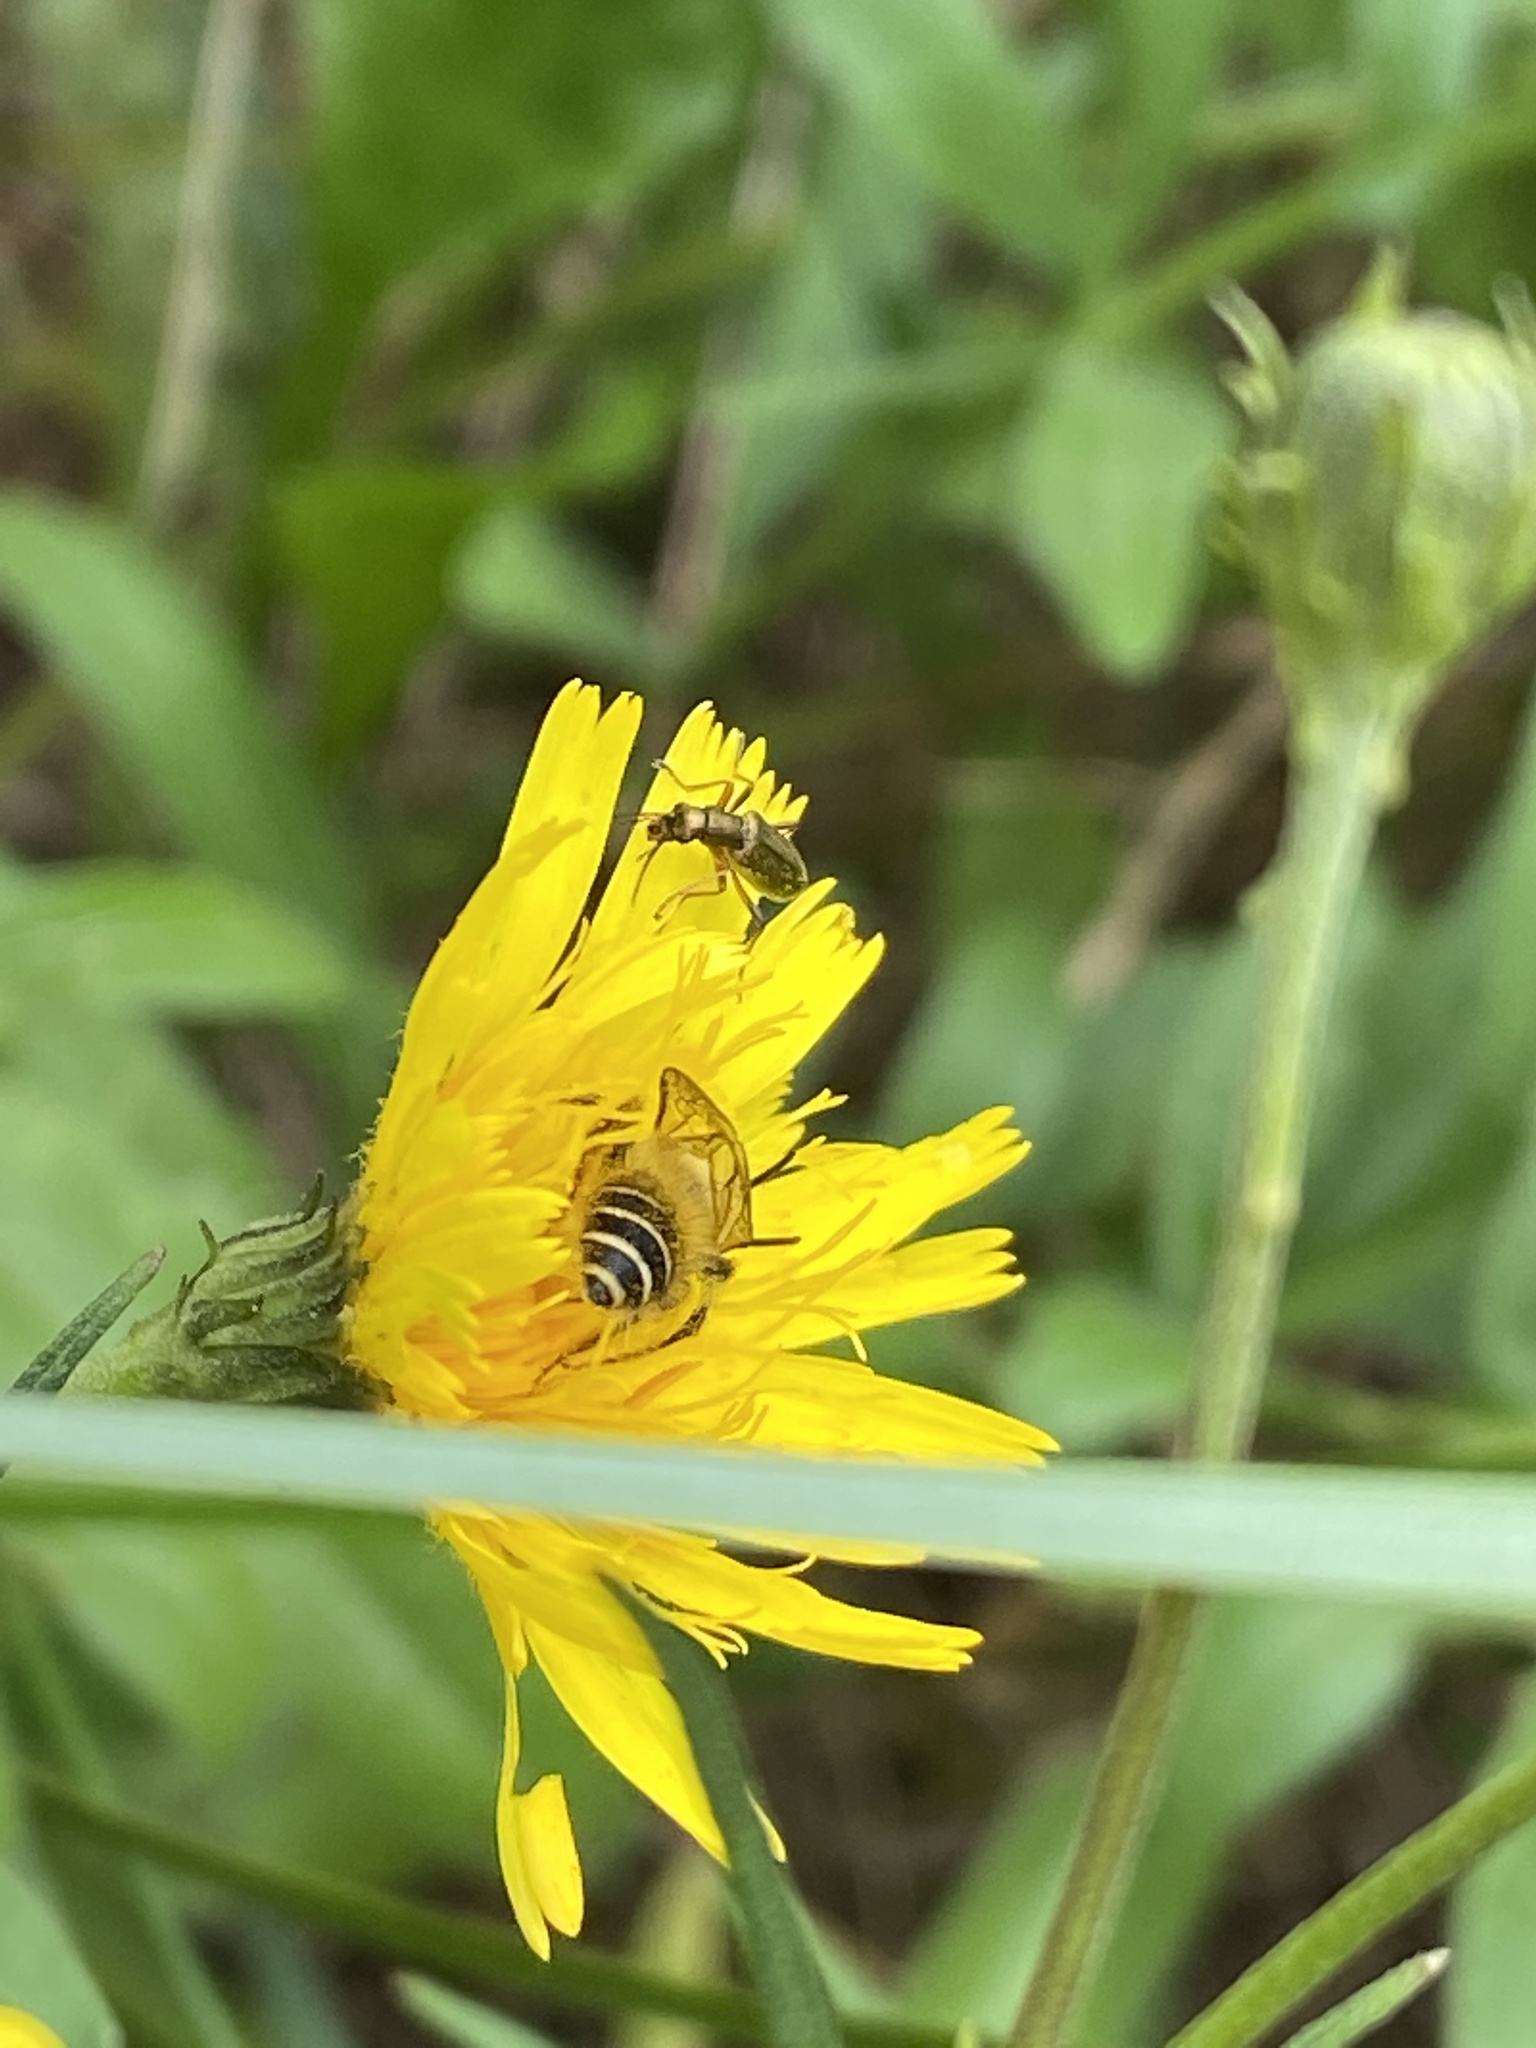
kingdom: Animalia
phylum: Arthropoda
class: Insecta
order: Hymenoptera
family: Melittidae
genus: Dasypoda
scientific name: Dasypoda hirtipes
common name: Pantaloon bee
